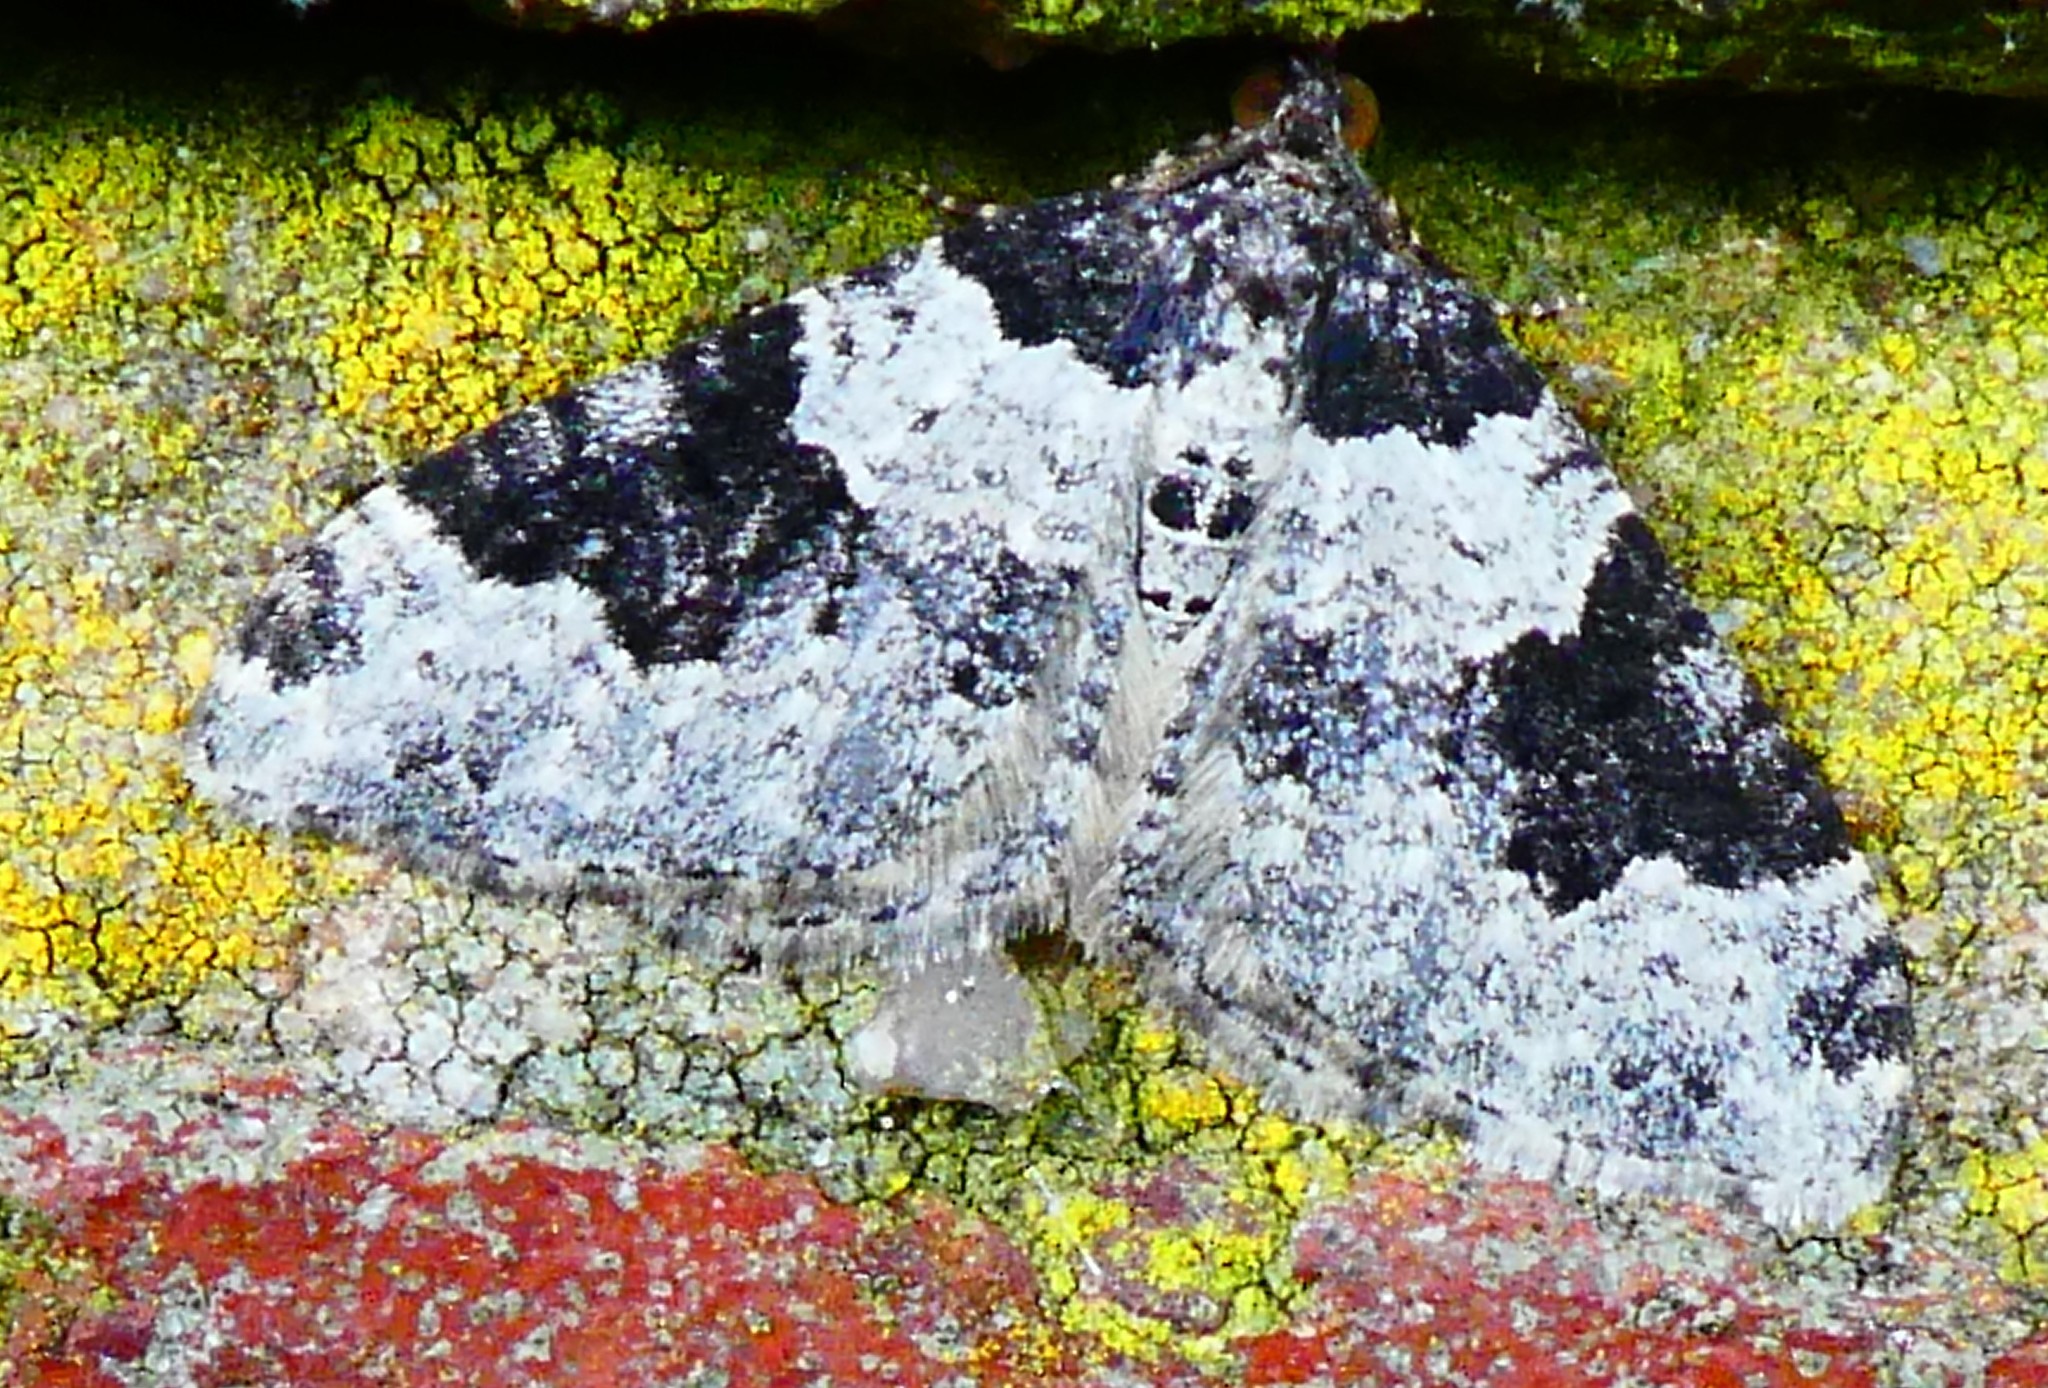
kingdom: Animalia
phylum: Arthropoda
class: Insecta
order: Lepidoptera
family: Geometridae
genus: Xanthorhoe
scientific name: Xanthorhoe fluctuata
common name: Garden carpet
